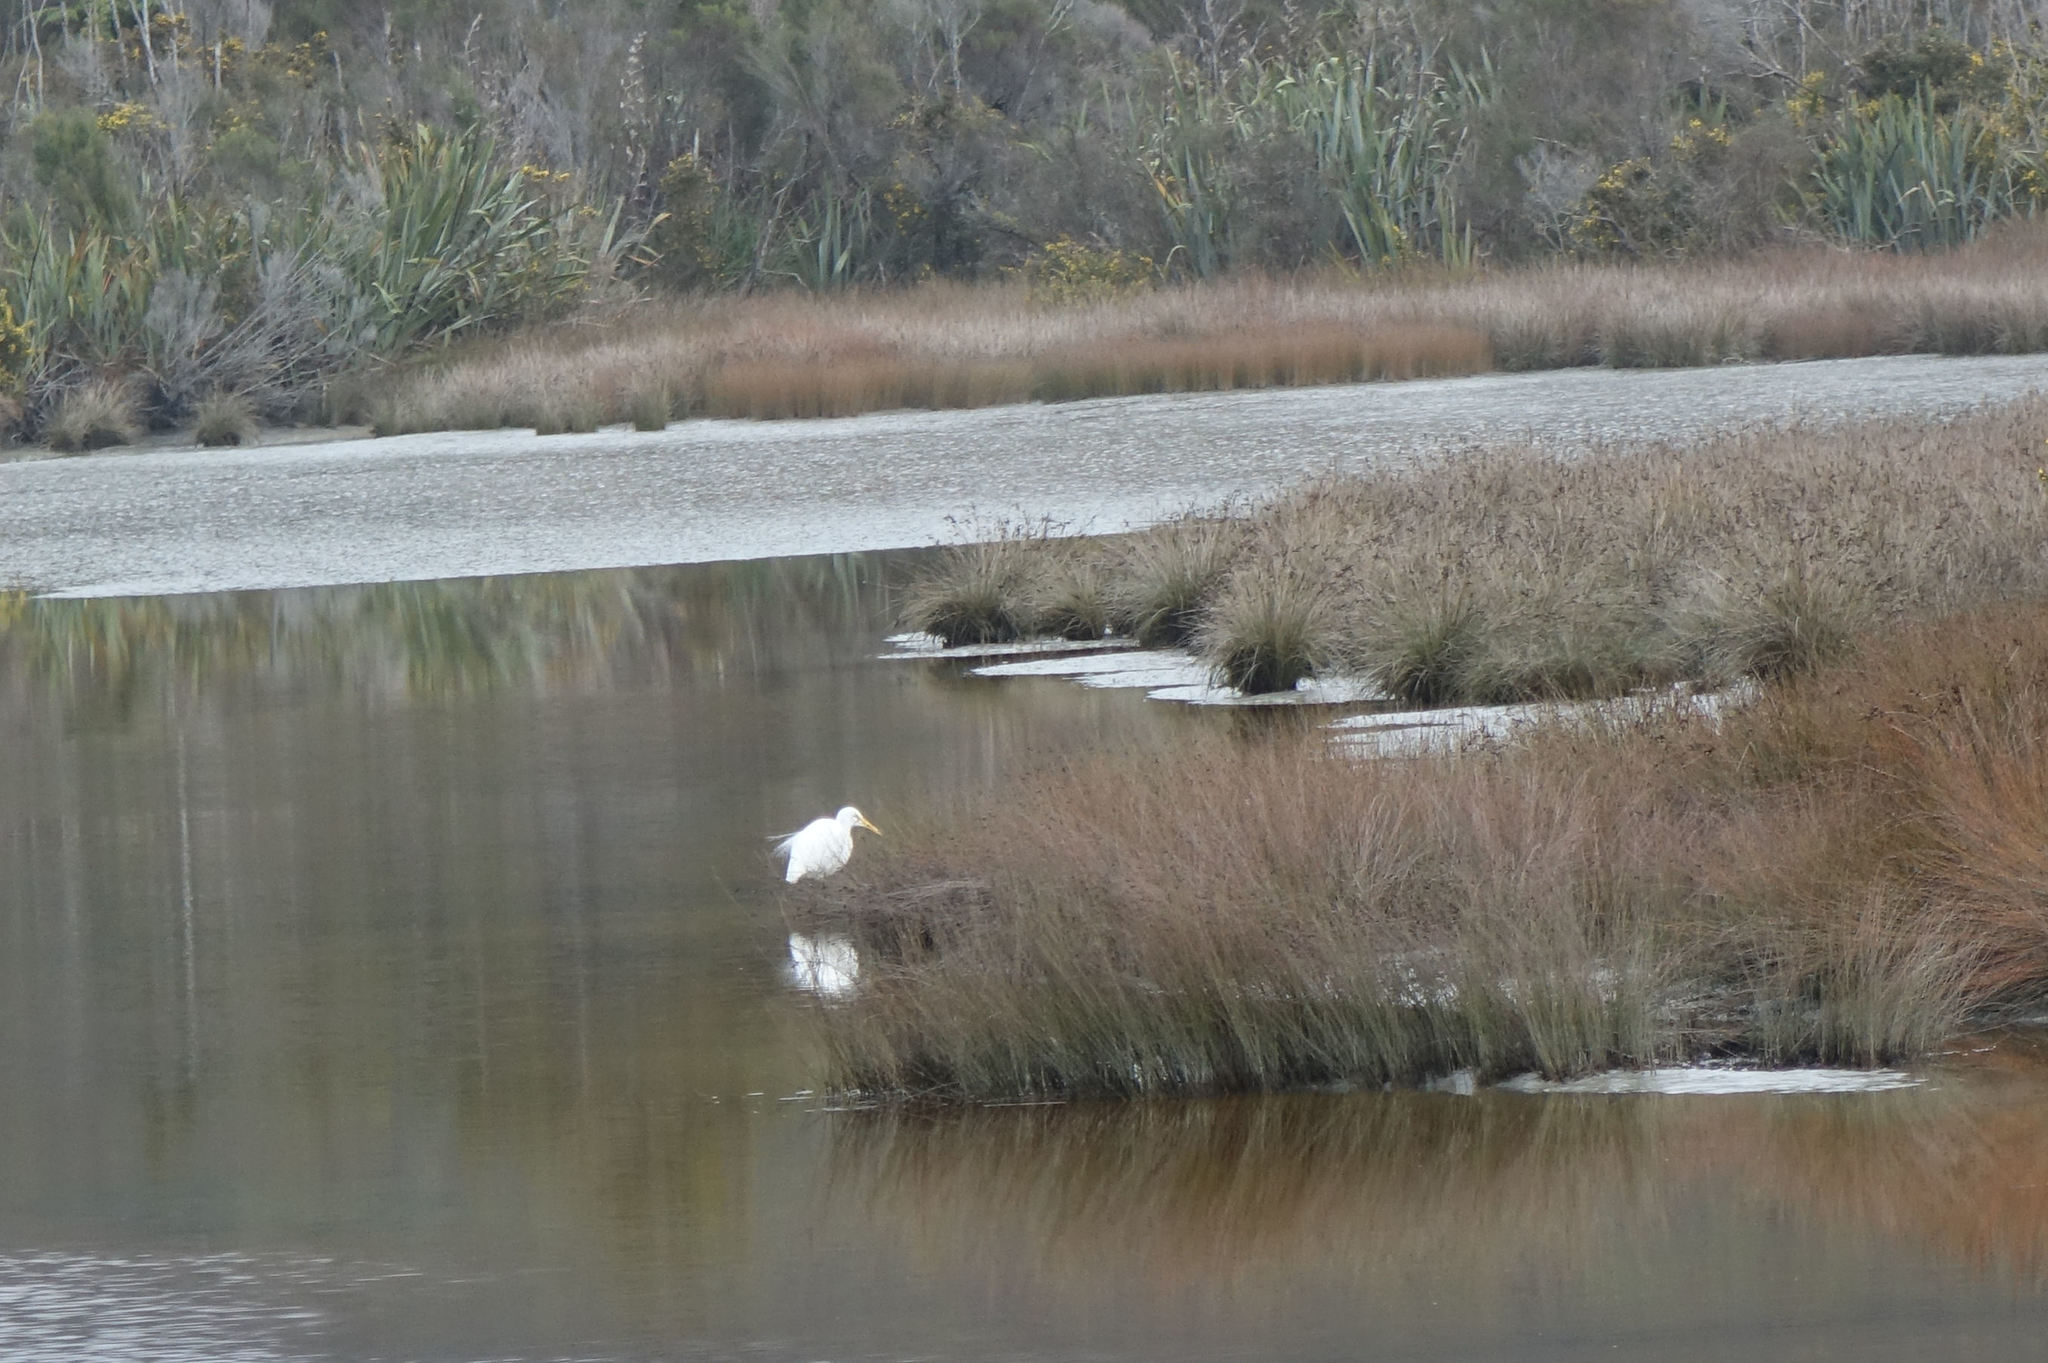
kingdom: Animalia
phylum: Chordata
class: Aves
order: Pelecaniformes
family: Ardeidae
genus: Ardea
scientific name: Ardea modesta
